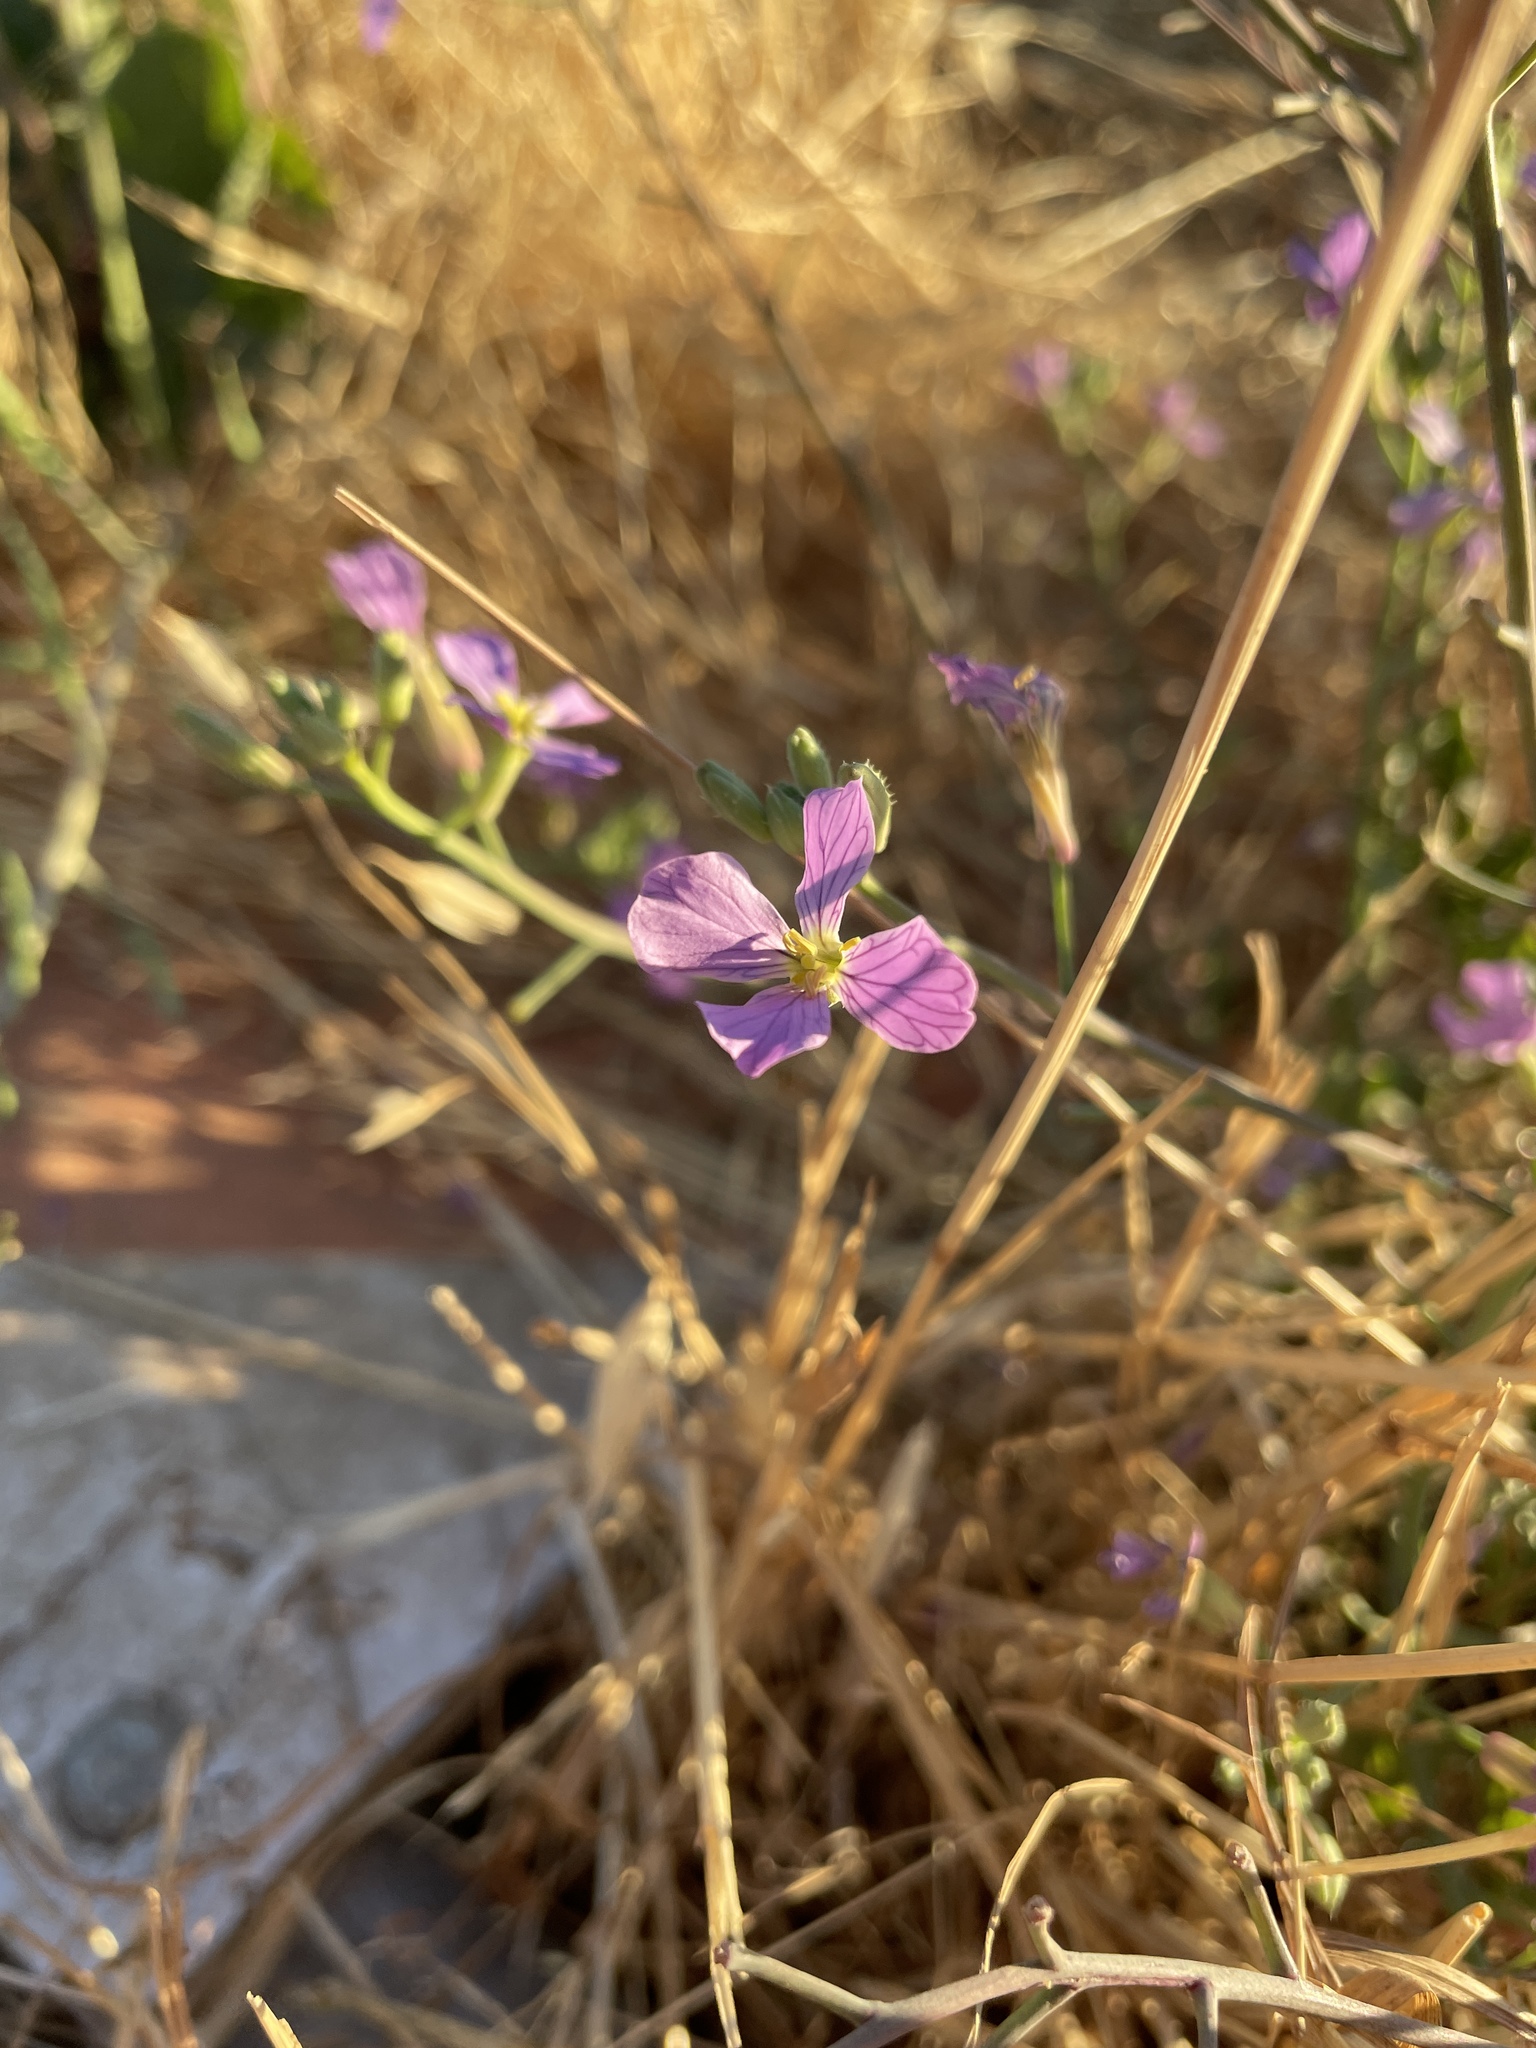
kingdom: Plantae
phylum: Tracheophyta
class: Magnoliopsida
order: Brassicales
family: Brassicaceae
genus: Raphanus
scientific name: Raphanus sativus
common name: Cultivated radish
